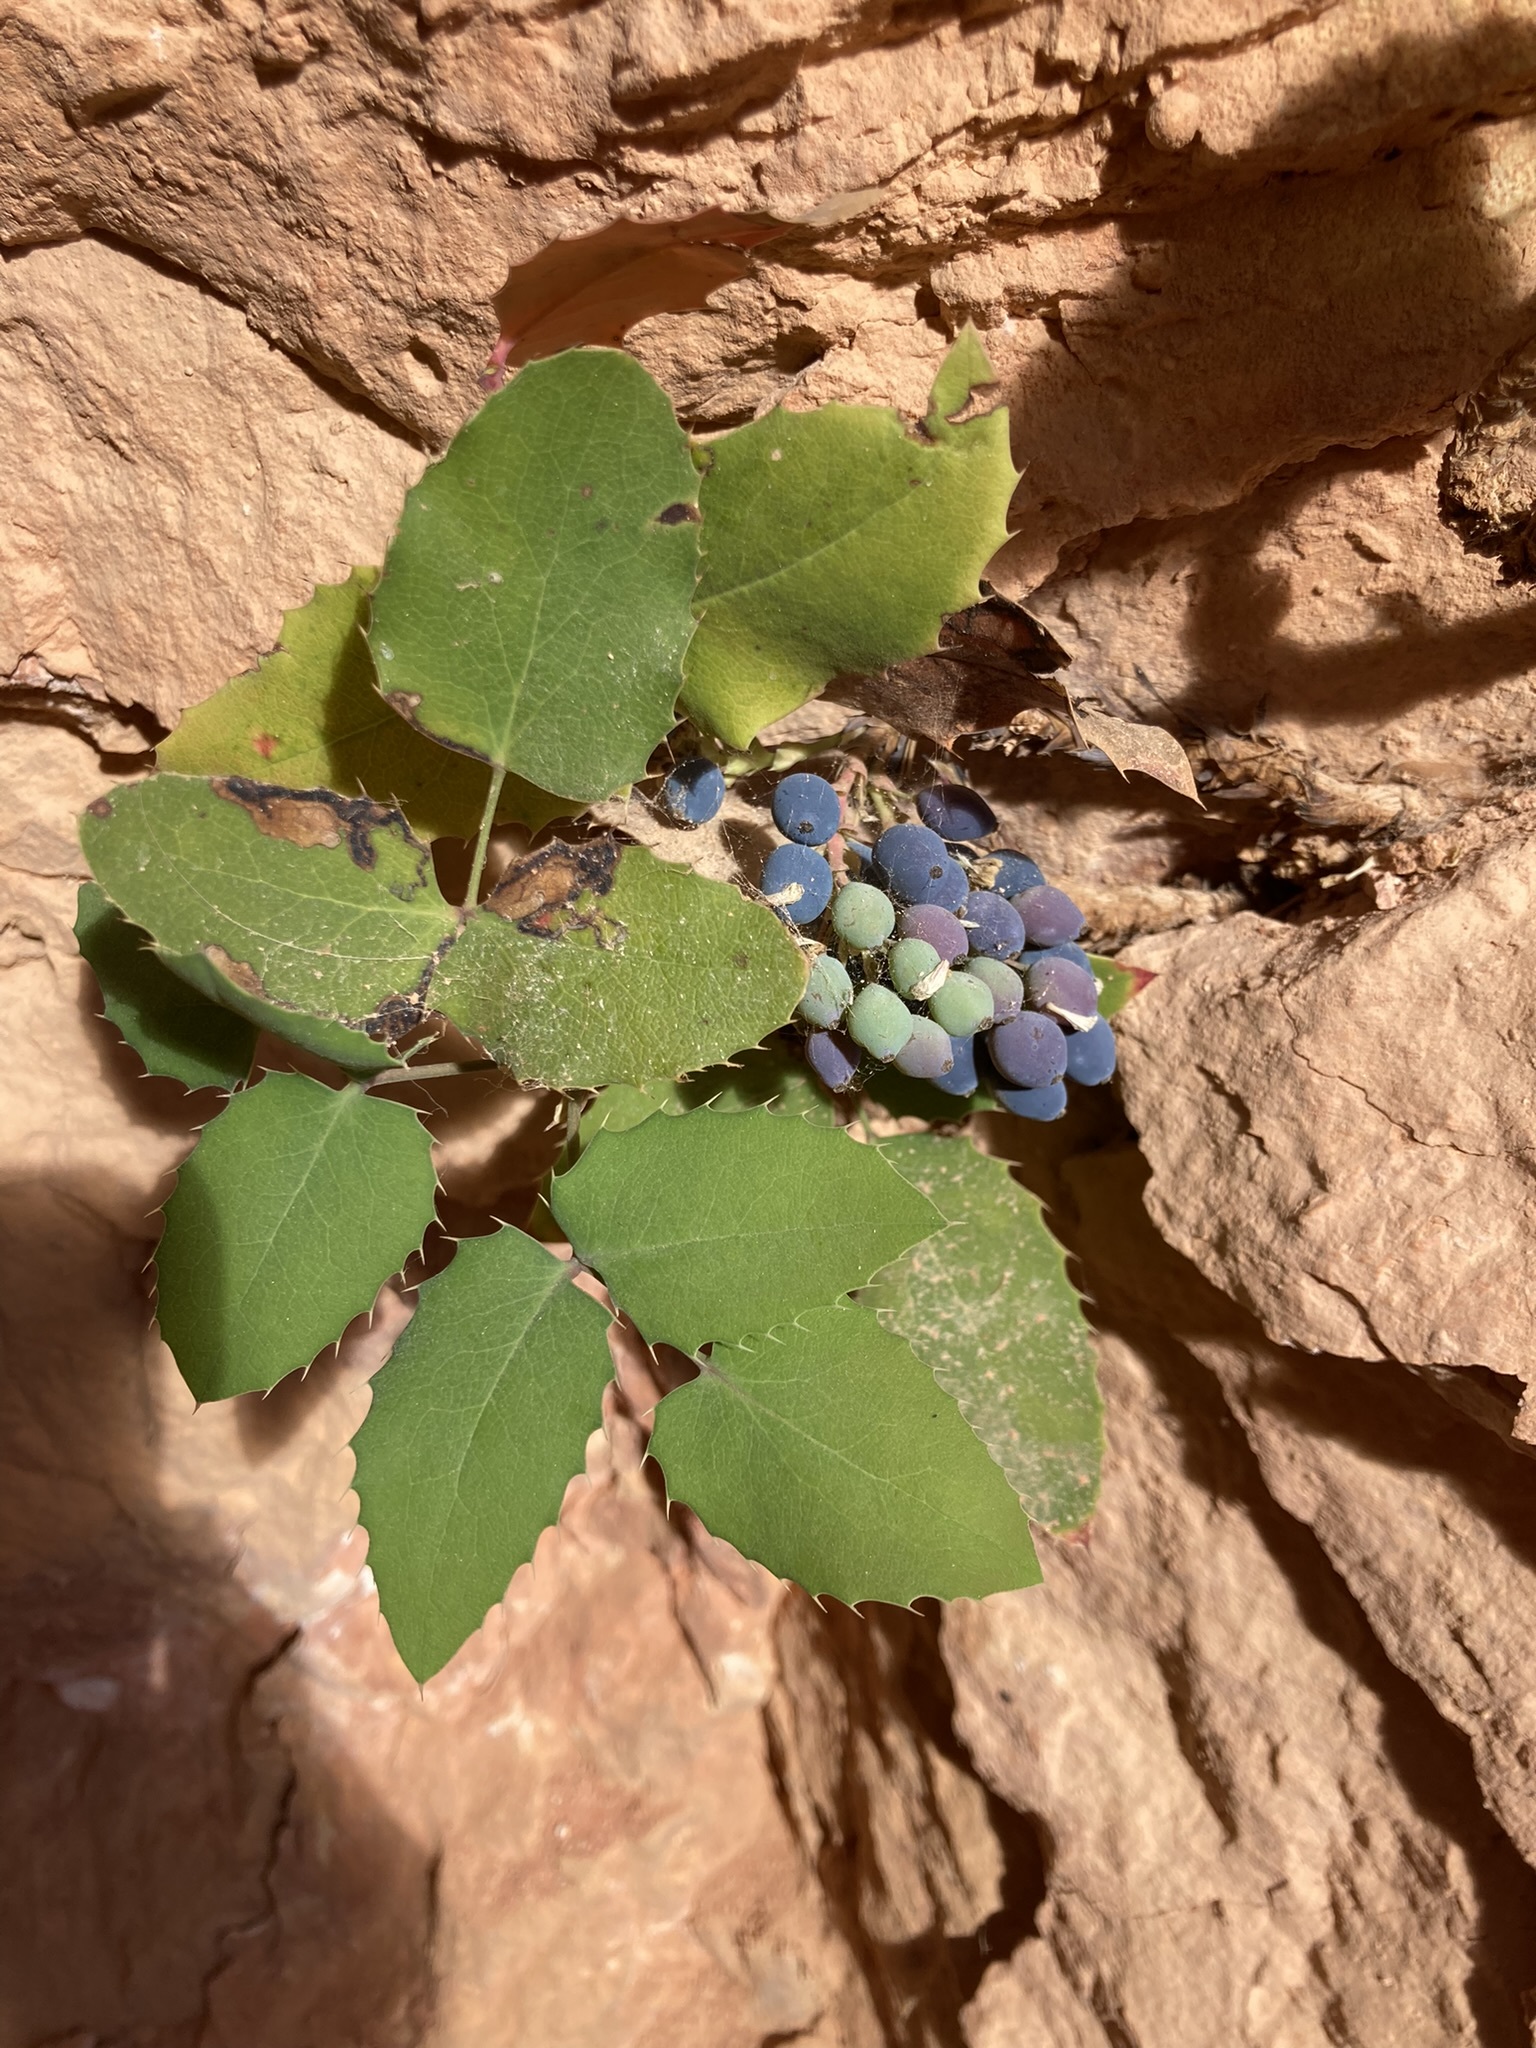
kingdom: Plantae
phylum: Tracheophyta
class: Magnoliopsida
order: Ranunculales
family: Berberidaceae
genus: Mahonia
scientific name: Mahonia repens
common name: Creeping oregon-grape
